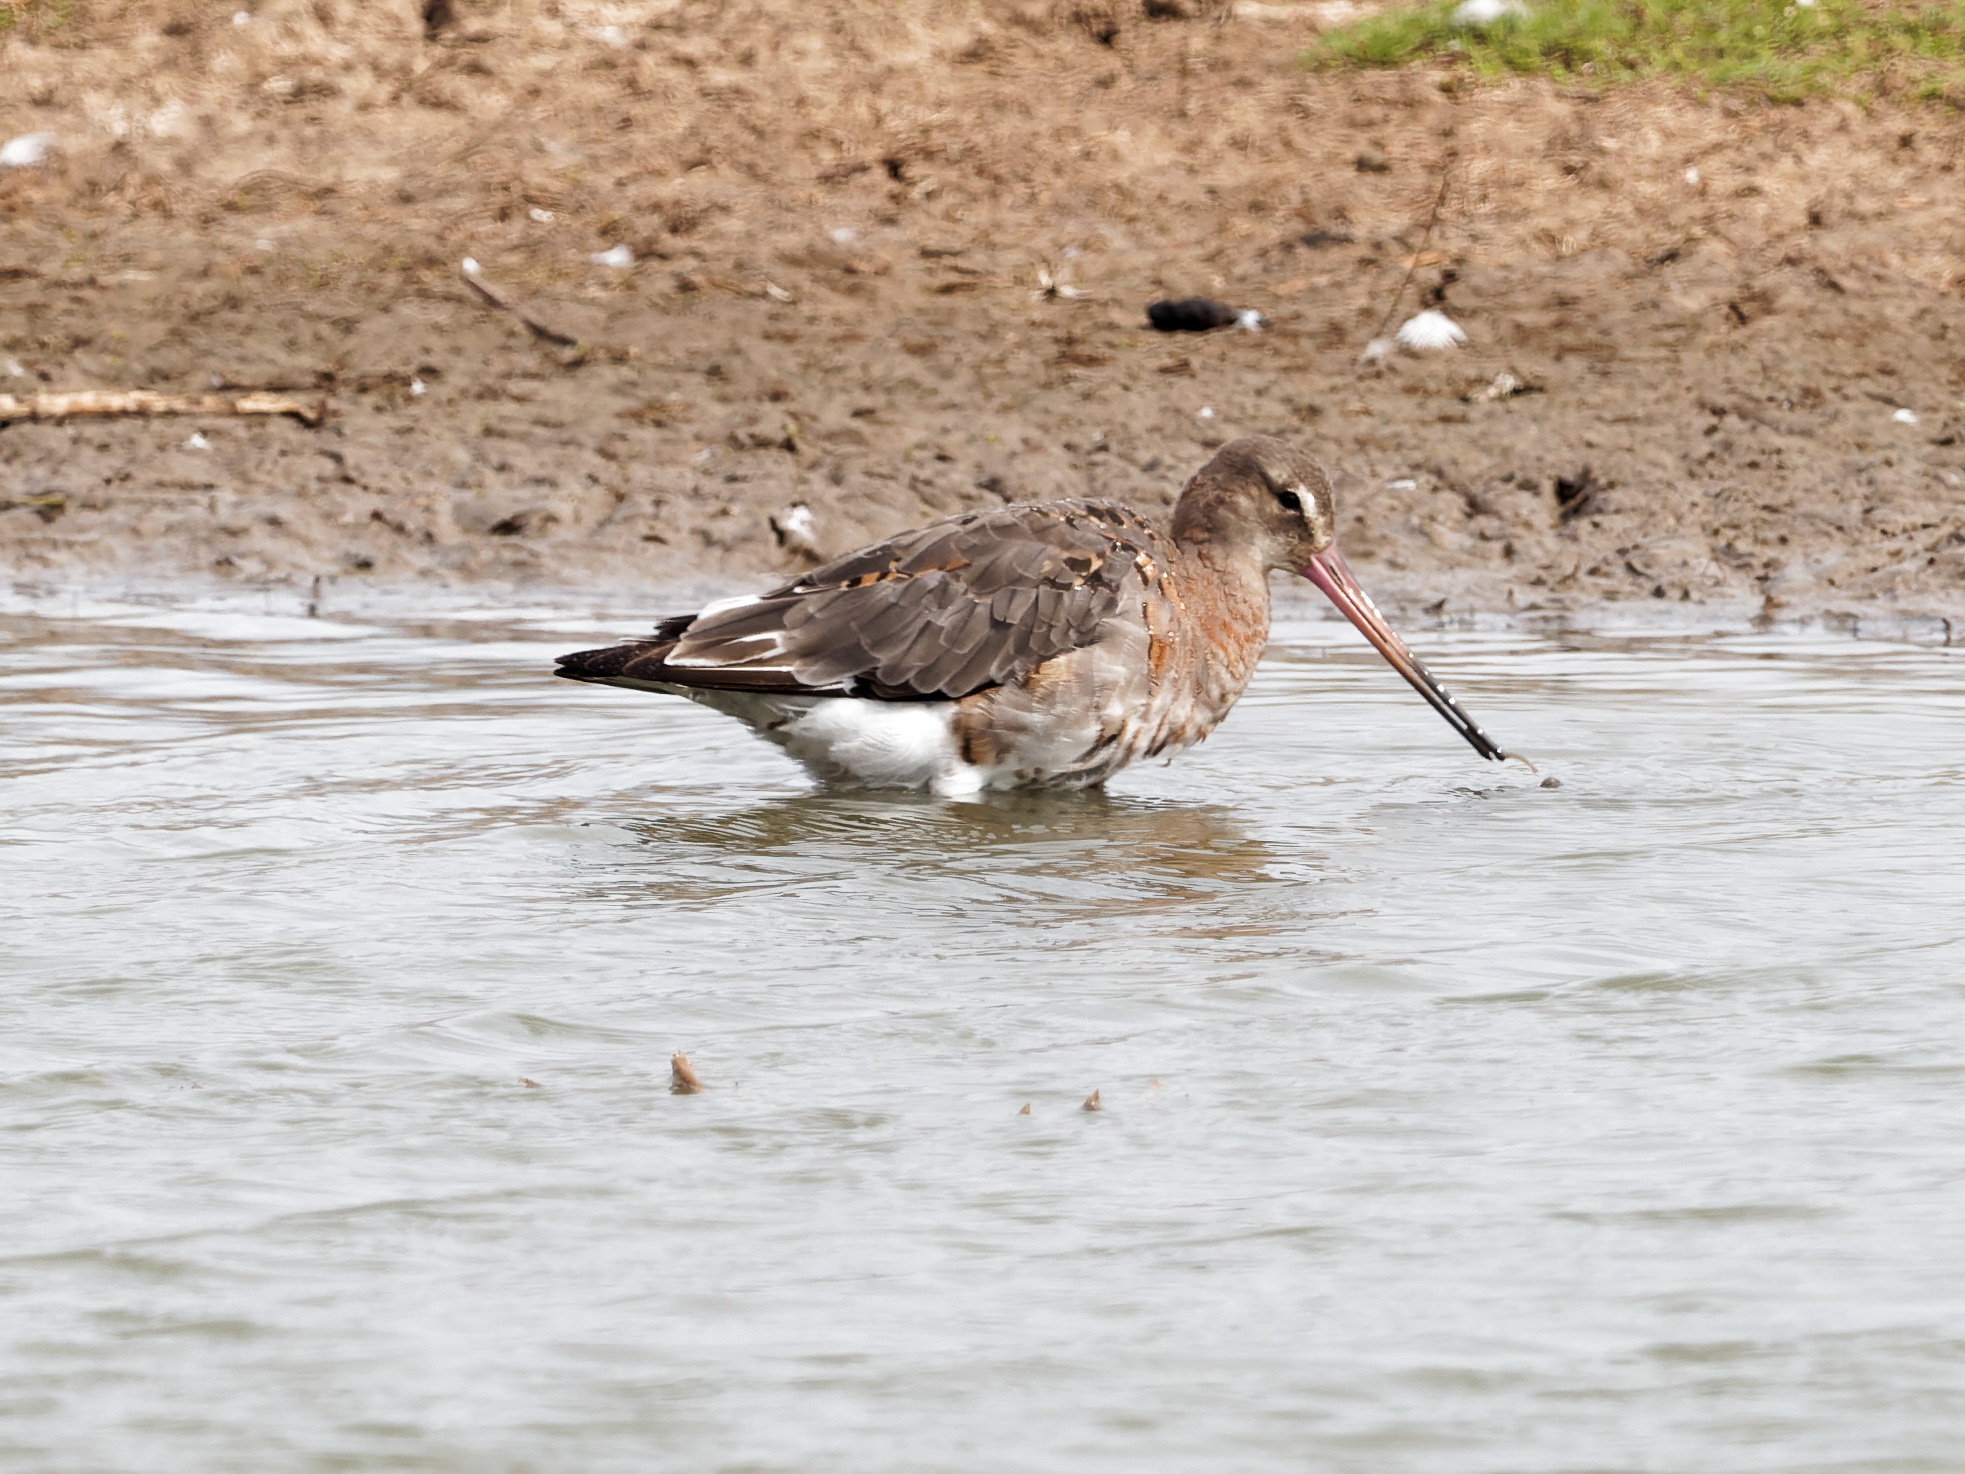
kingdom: Animalia
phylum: Chordata
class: Aves
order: Charadriiformes
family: Scolopacidae
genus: Limosa
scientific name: Limosa limosa
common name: Black-tailed godwit
